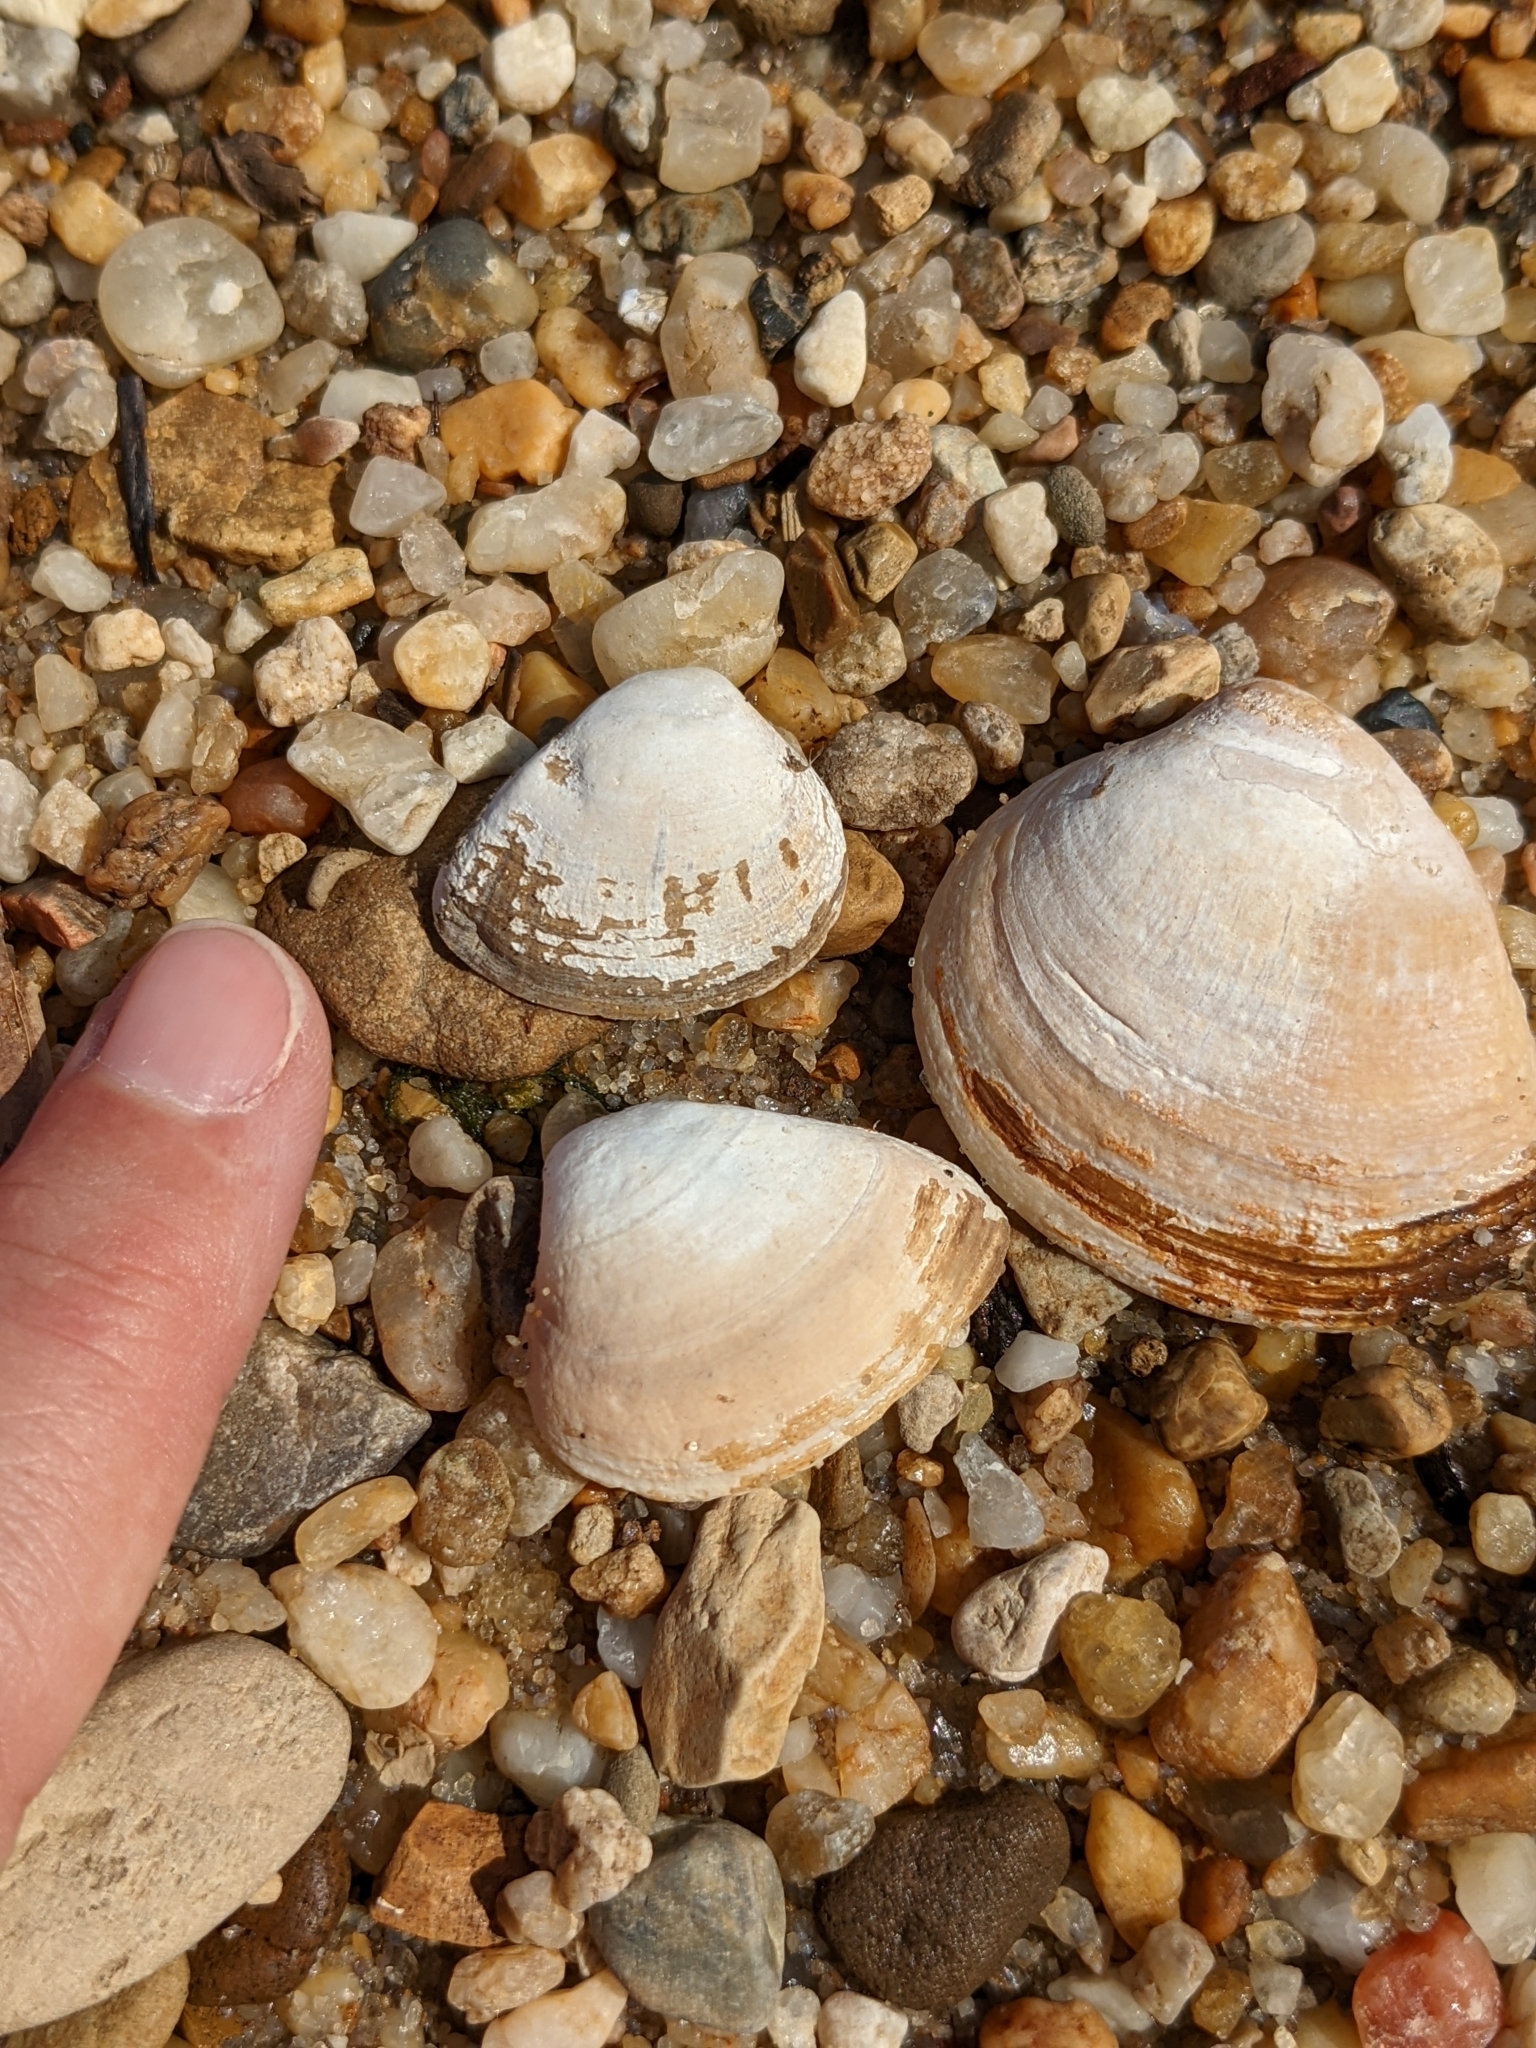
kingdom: Animalia
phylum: Mollusca
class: Bivalvia
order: Venerida
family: Mactridae
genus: Rangia
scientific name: Rangia cuneata
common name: Atlantic rangia
